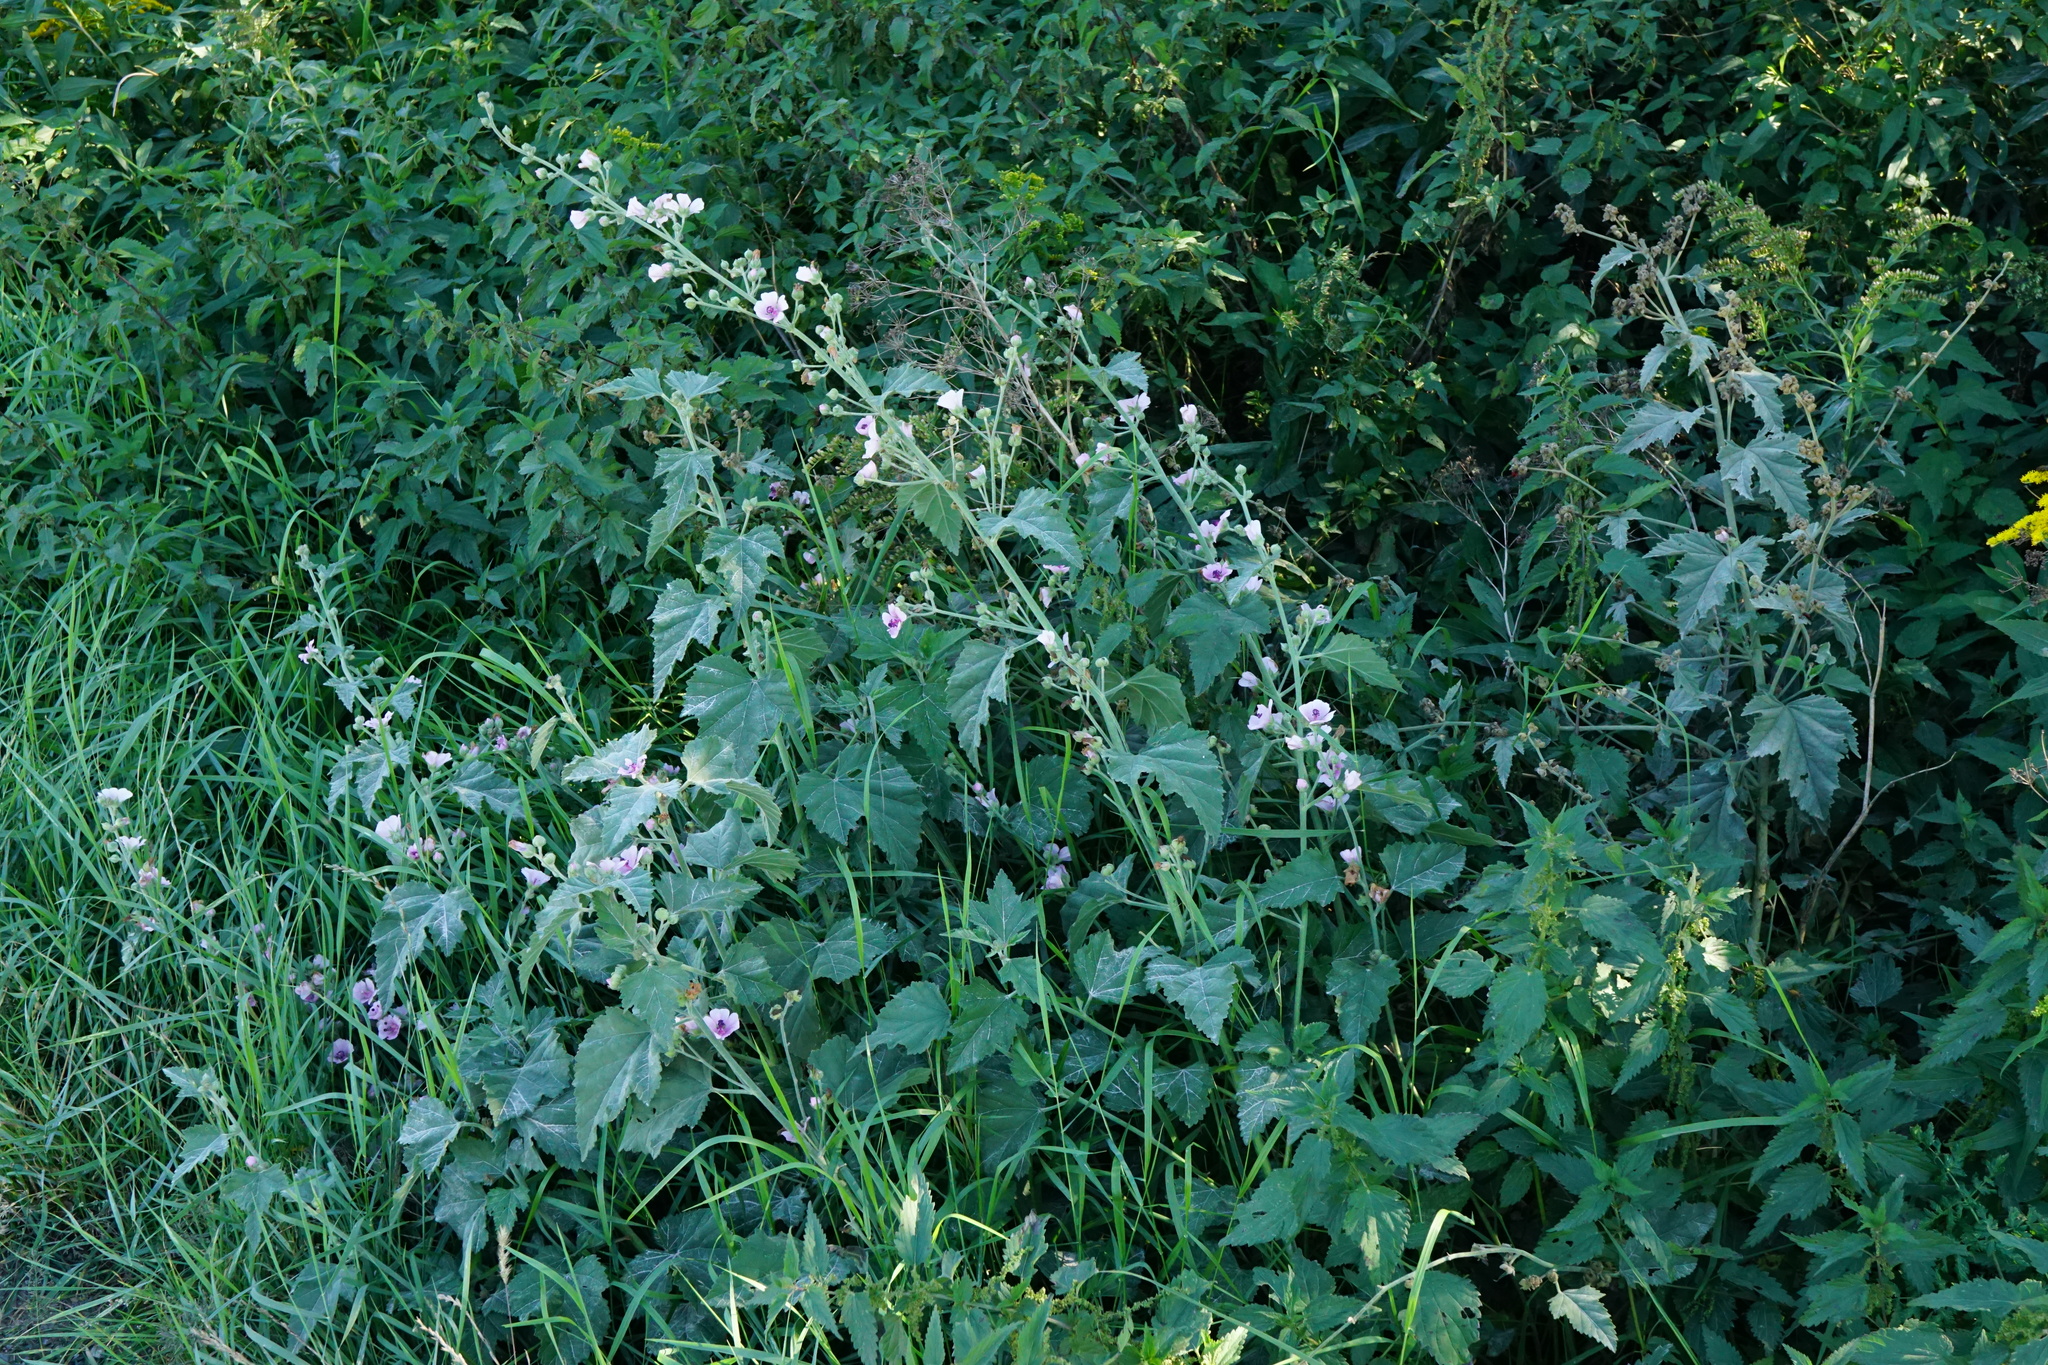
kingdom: Plantae
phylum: Tracheophyta
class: Magnoliopsida
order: Malvales
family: Malvaceae
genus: Althaea
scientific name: Althaea officinalis
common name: Marsh-mallow
